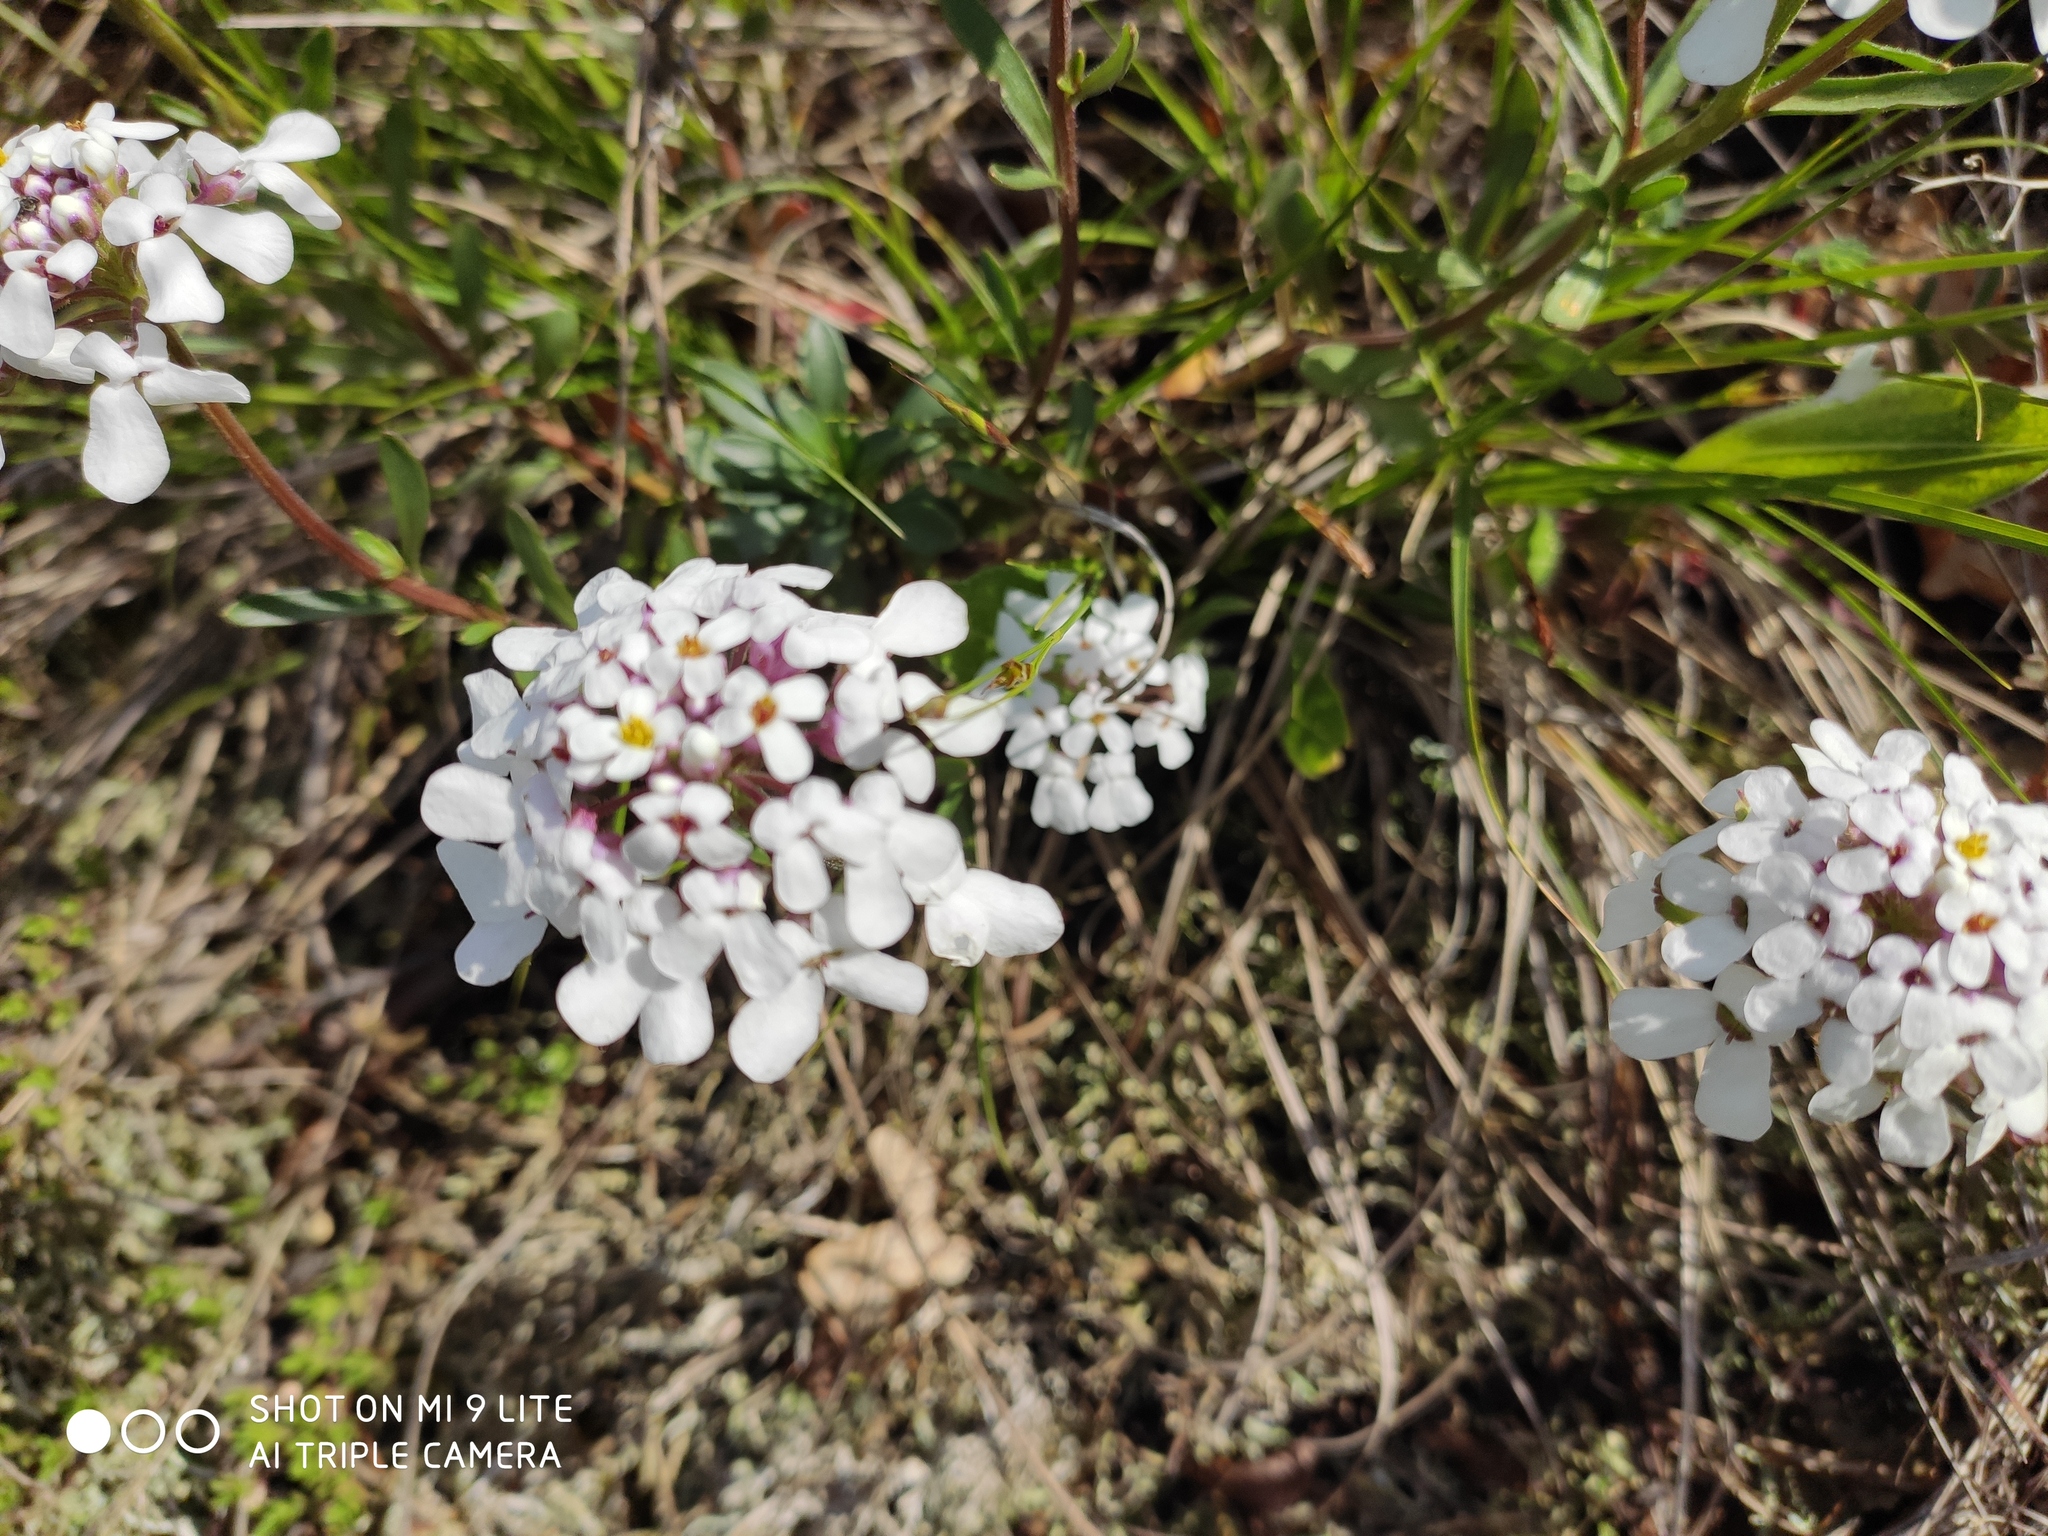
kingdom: Plantae
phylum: Tracheophyta
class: Magnoliopsida
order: Brassicales
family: Brassicaceae
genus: Iberis
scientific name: Iberis simplex
